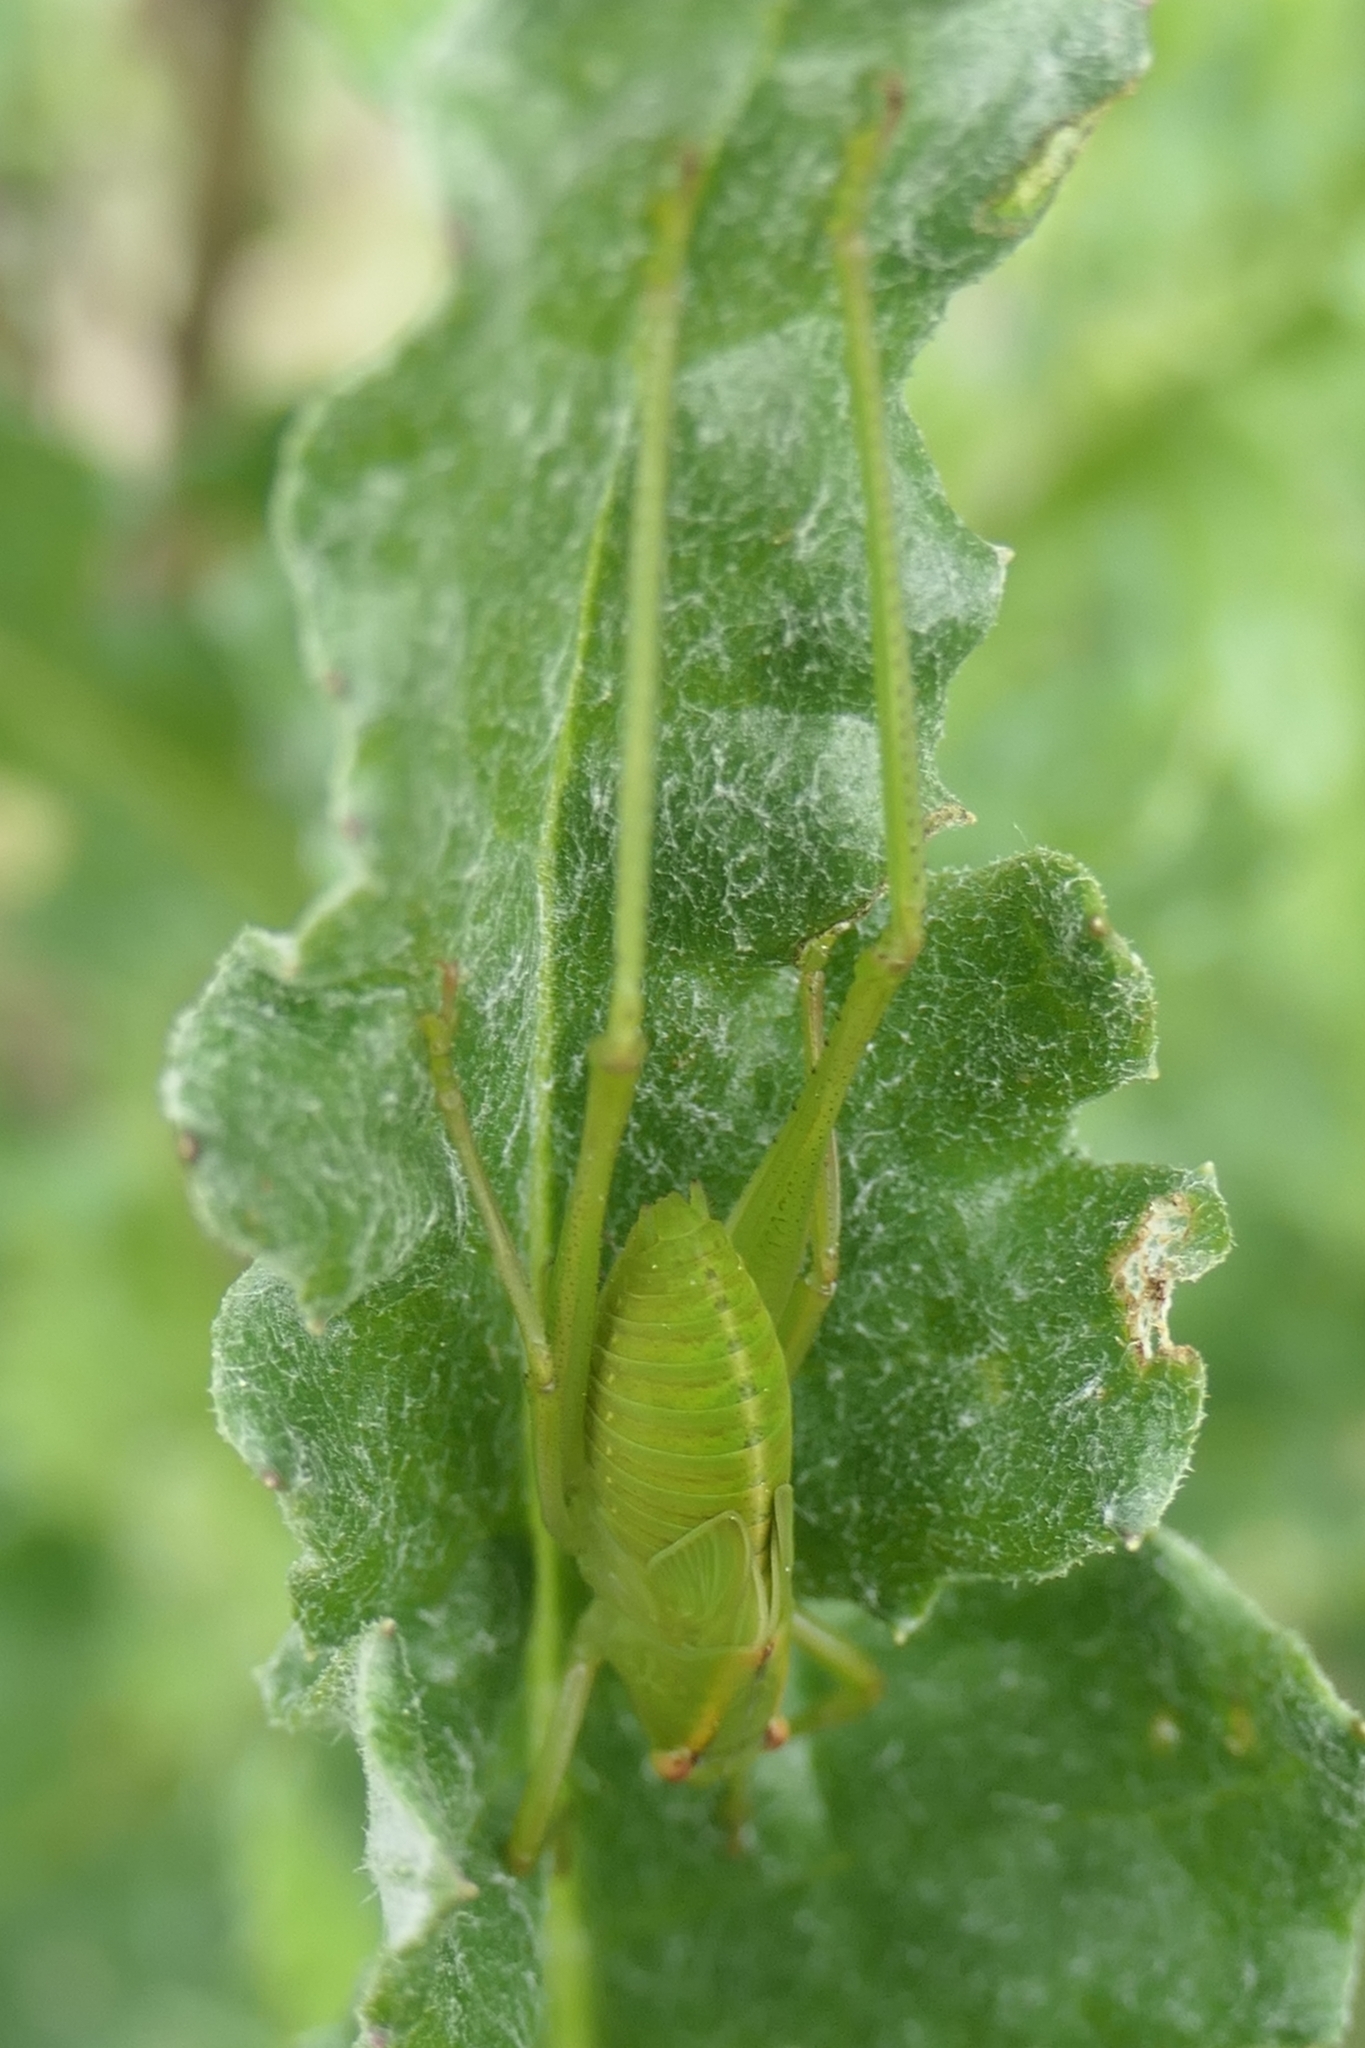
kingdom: Animalia
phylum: Arthropoda
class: Insecta
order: Orthoptera
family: Tettigoniidae
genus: Caedicia
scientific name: Caedicia simplex
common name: Common garden katydid
